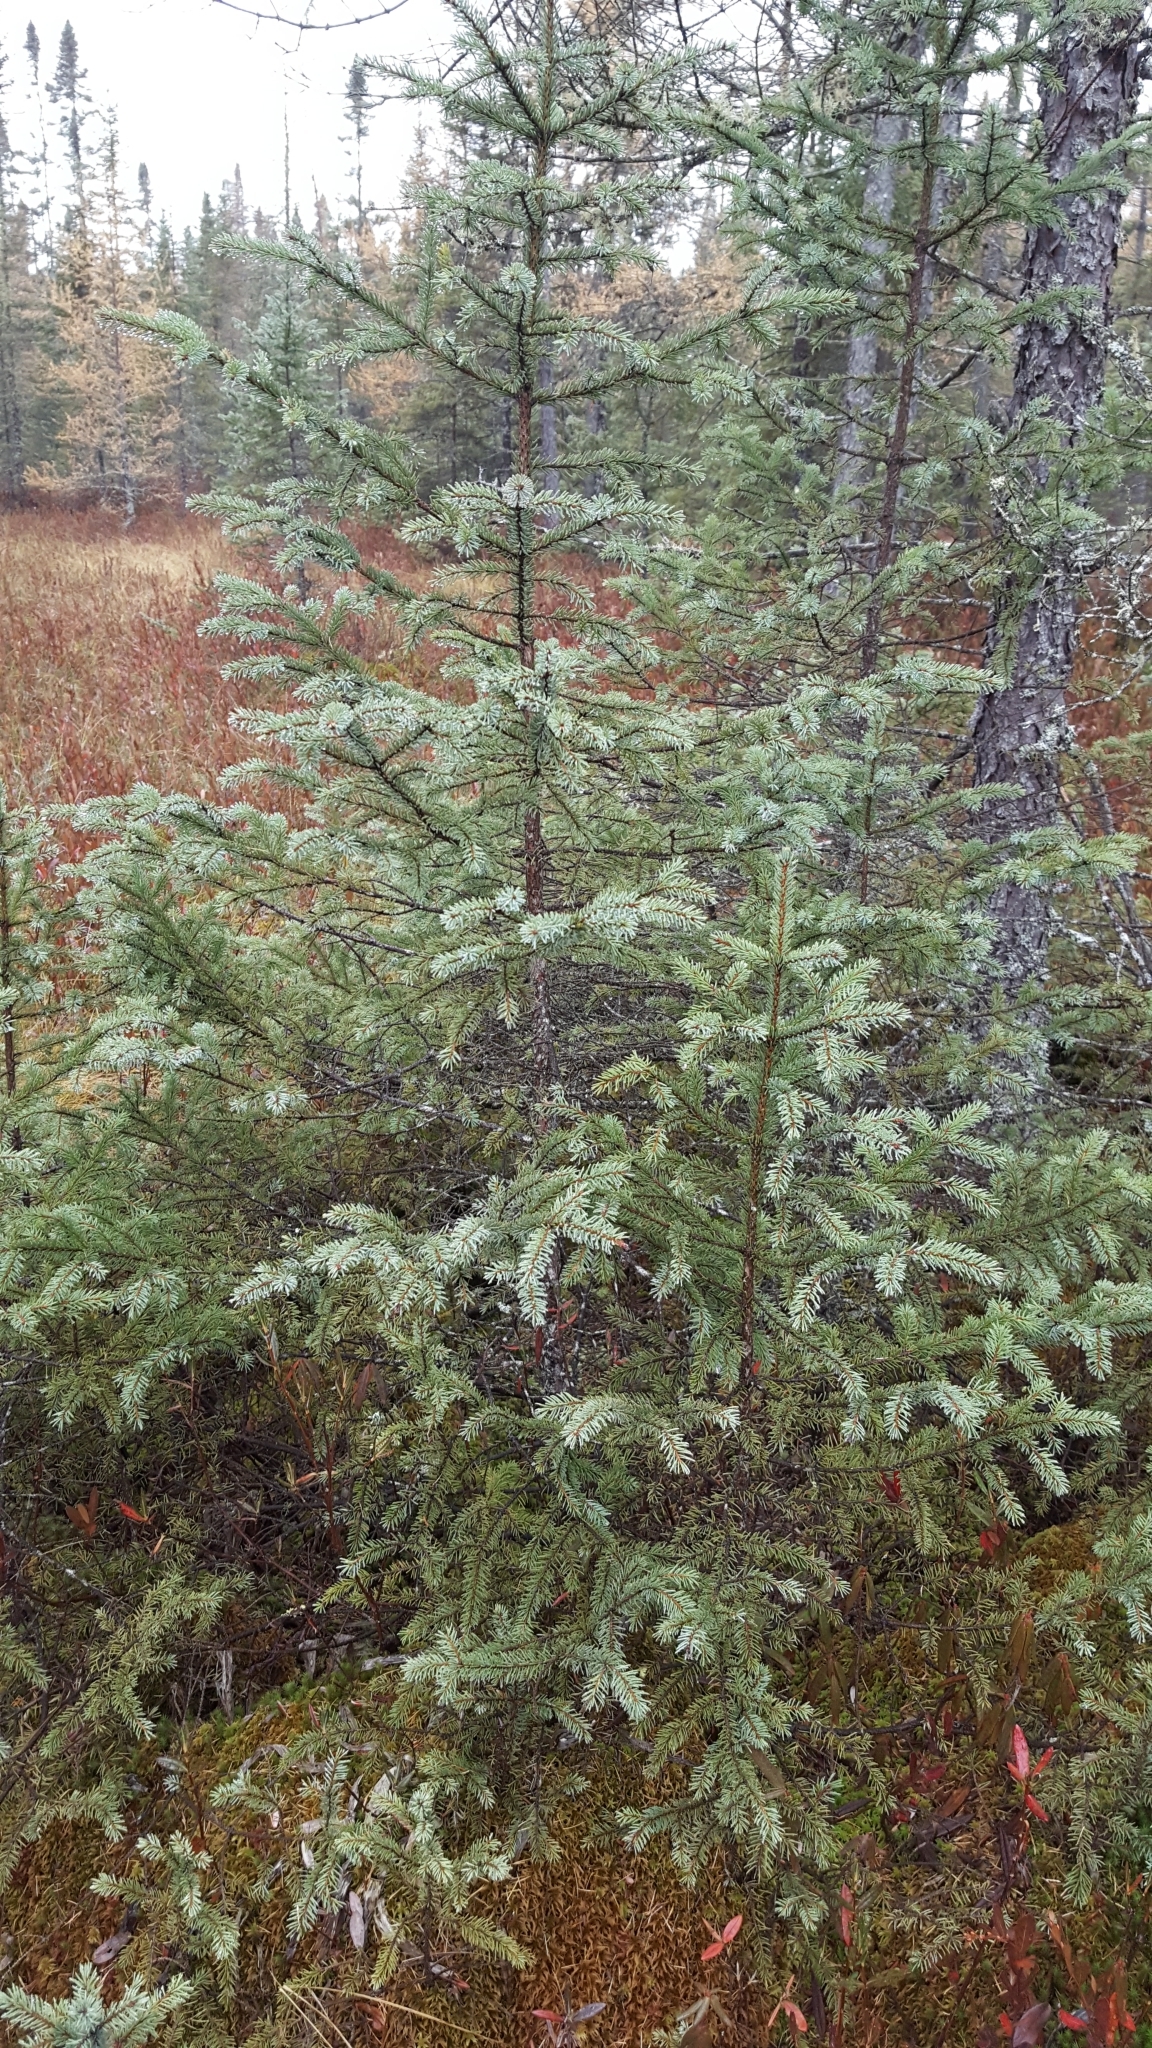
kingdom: Plantae
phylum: Tracheophyta
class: Pinopsida
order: Pinales
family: Pinaceae
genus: Picea
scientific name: Picea mariana
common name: Black spruce
